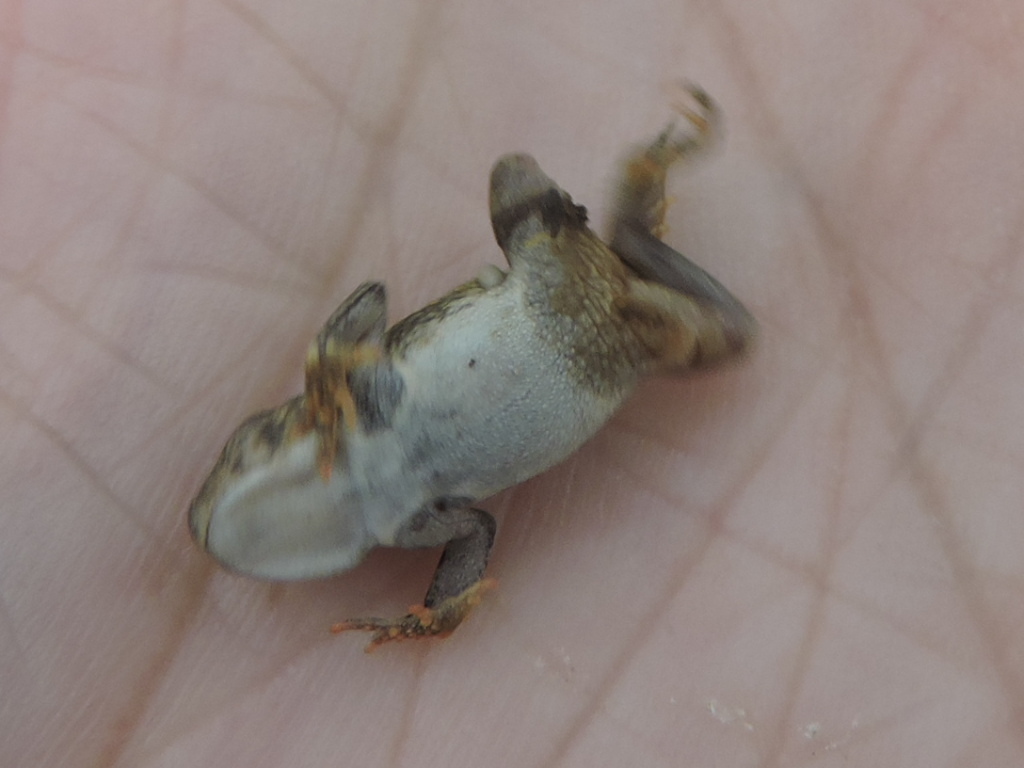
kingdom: Animalia
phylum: Chordata
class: Amphibia
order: Anura
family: Bufonidae
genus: Incilius
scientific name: Incilius nebulifer
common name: Gulf coast toad
